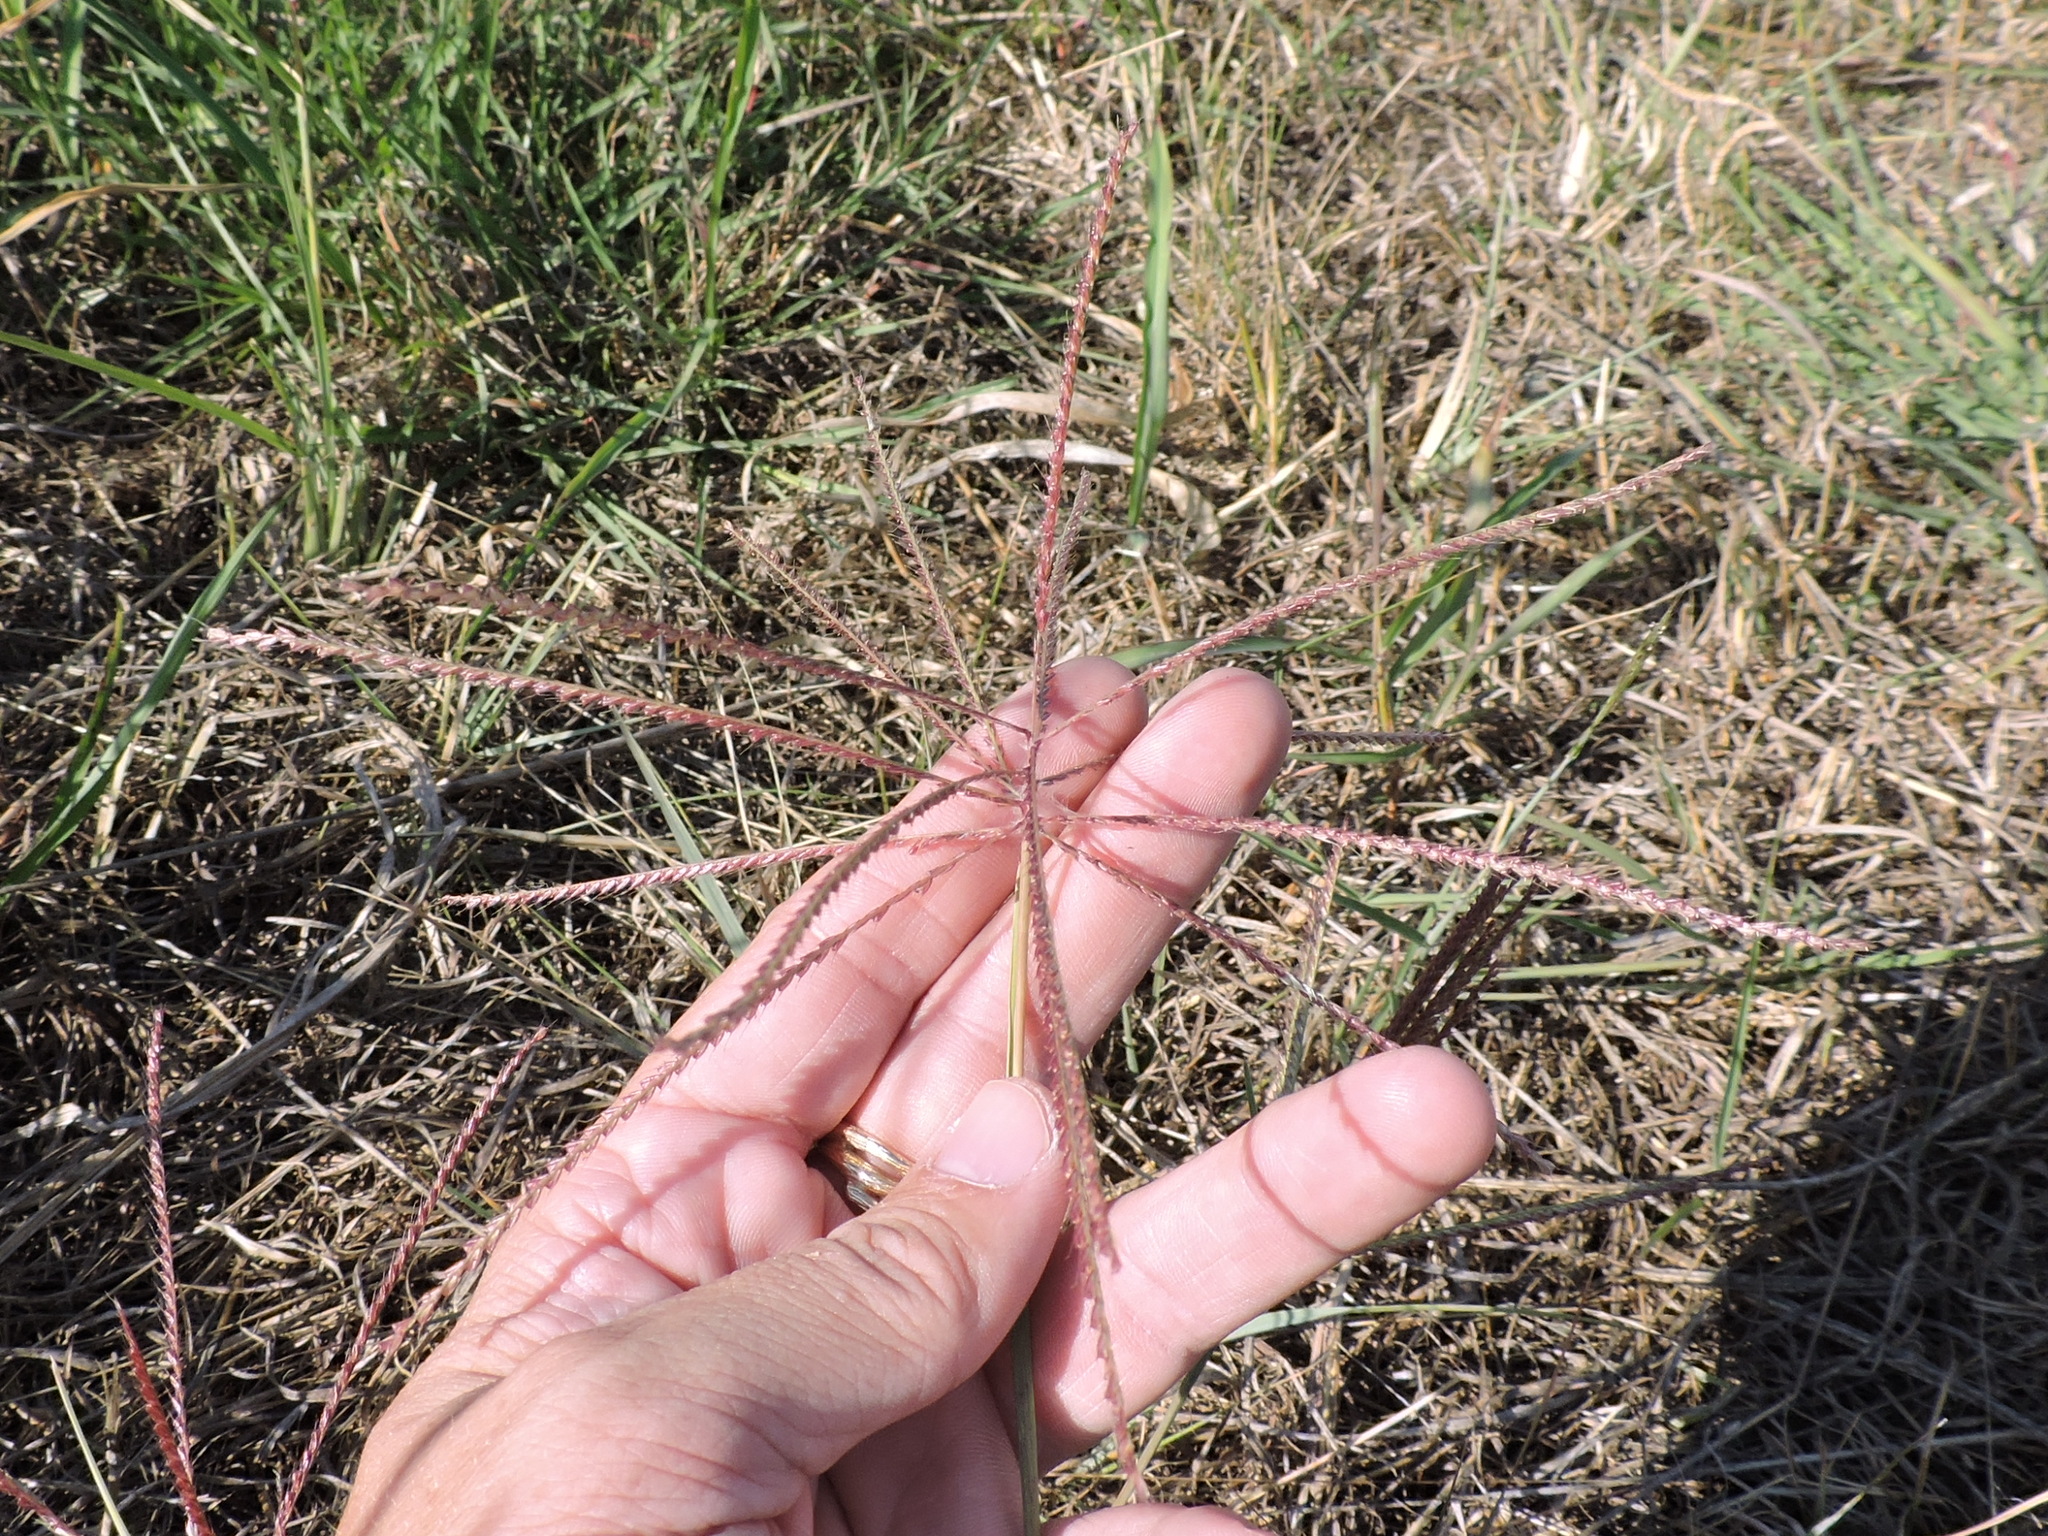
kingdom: Plantae
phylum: Tracheophyta
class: Liliopsida
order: Poales
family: Poaceae
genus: Chloris
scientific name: Chloris verticillata
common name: Tumble windmill grass
